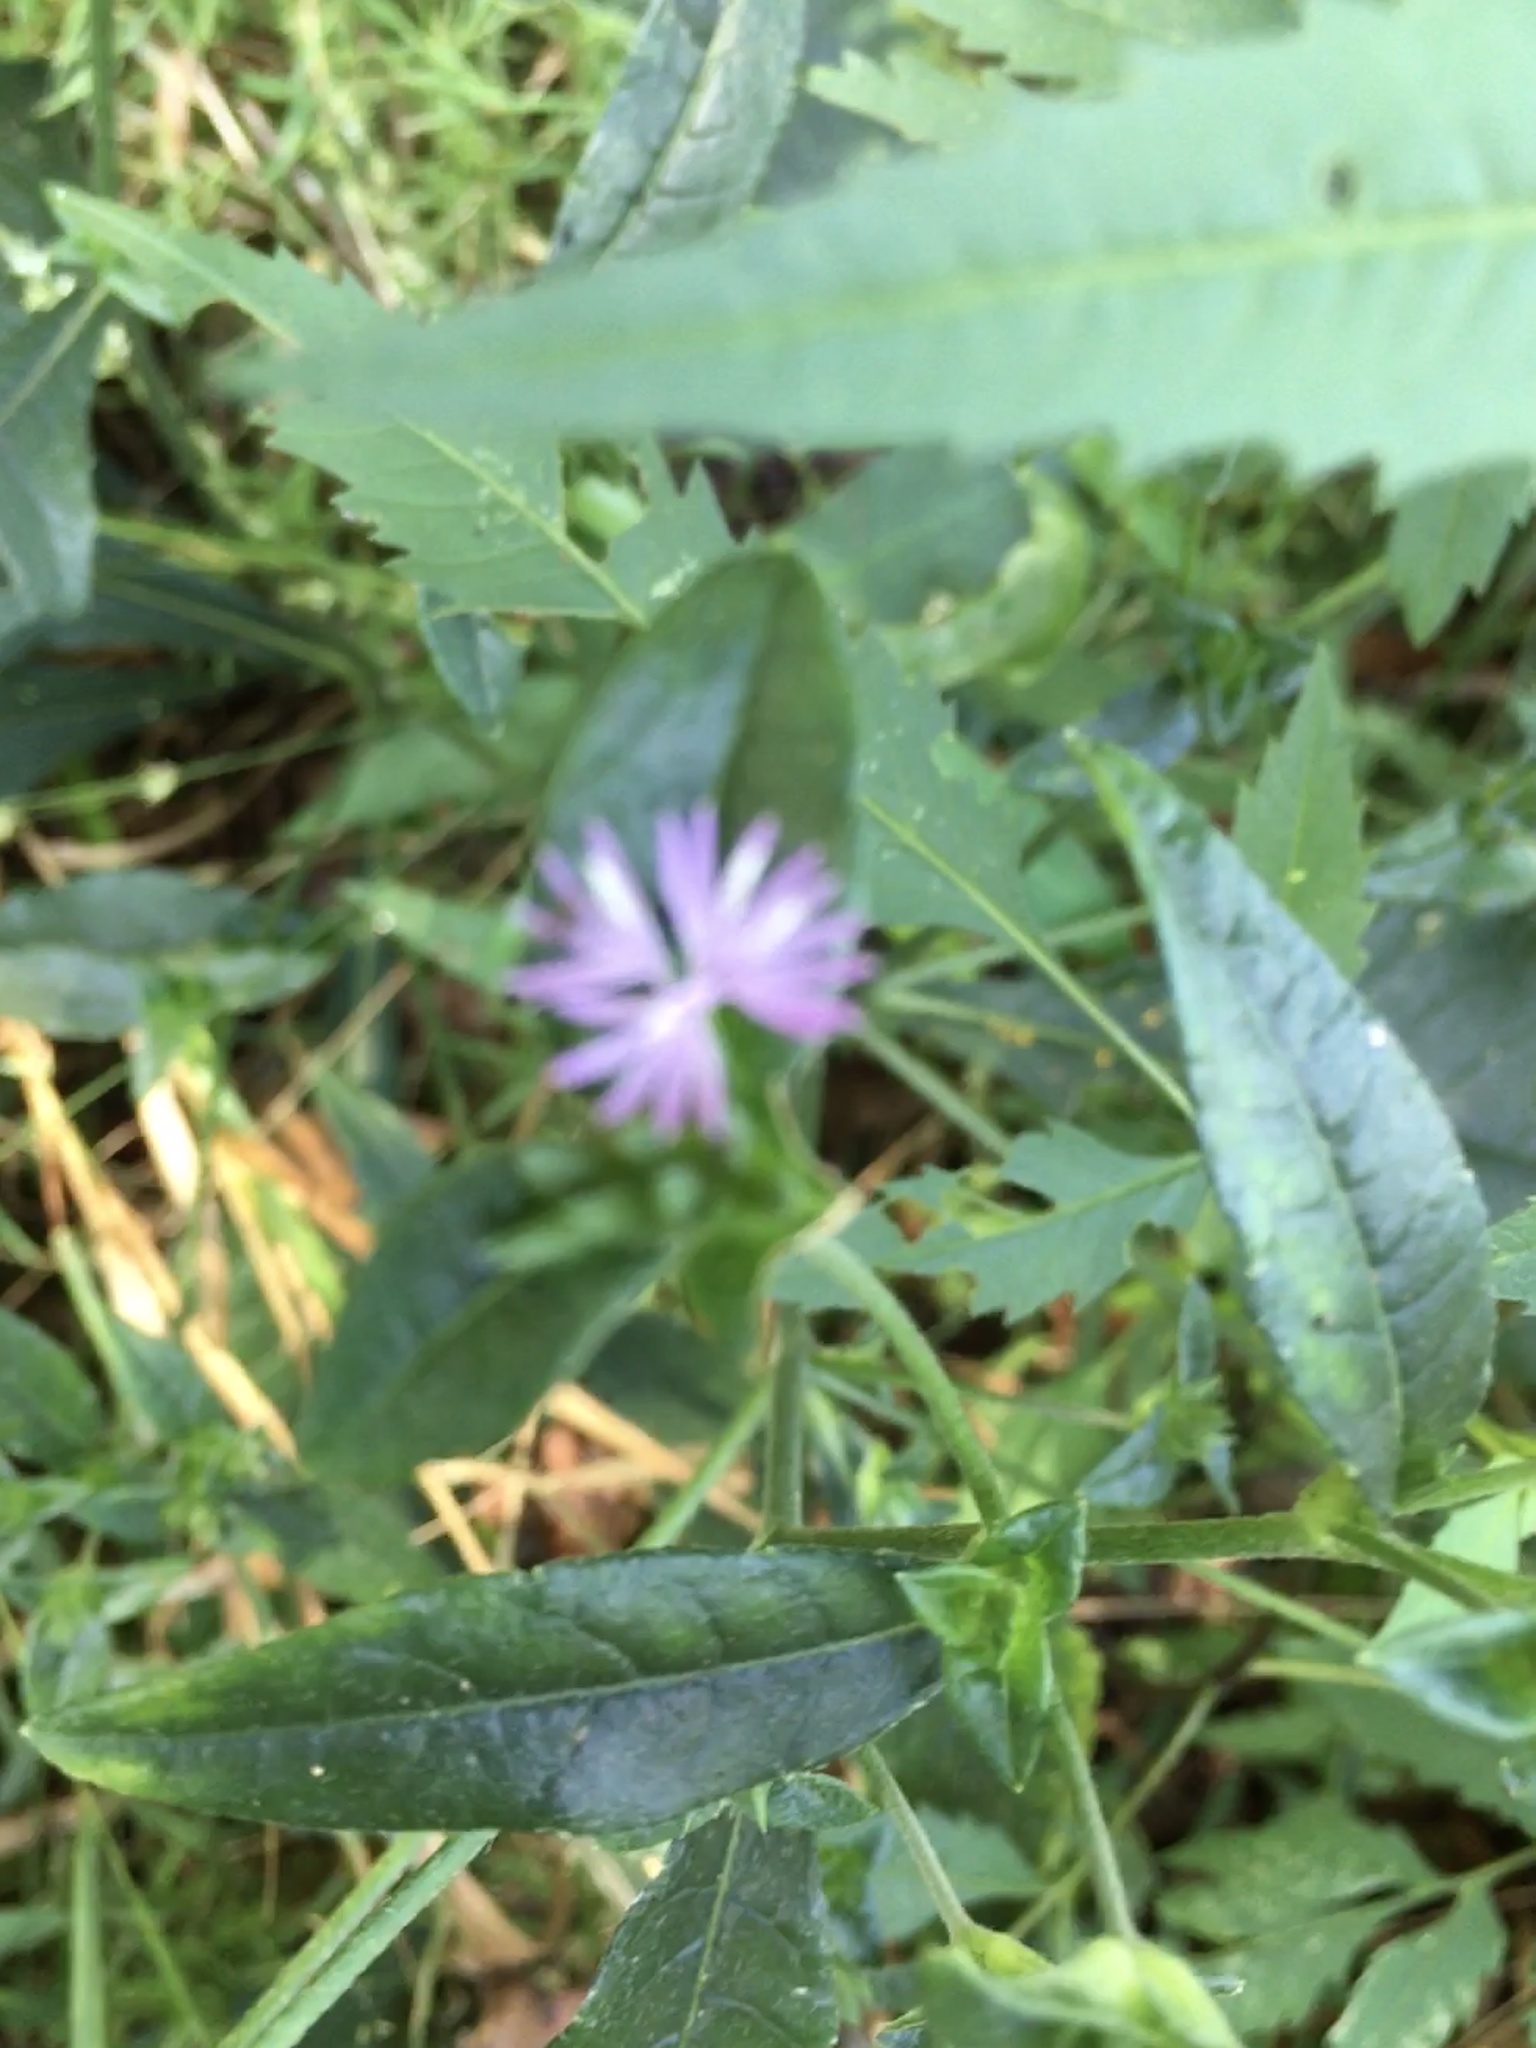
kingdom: Plantae
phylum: Tracheophyta
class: Magnoliopsida
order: Asterales
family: Asteraceae
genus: Elephantopus
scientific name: Elephantopus carolinianus
